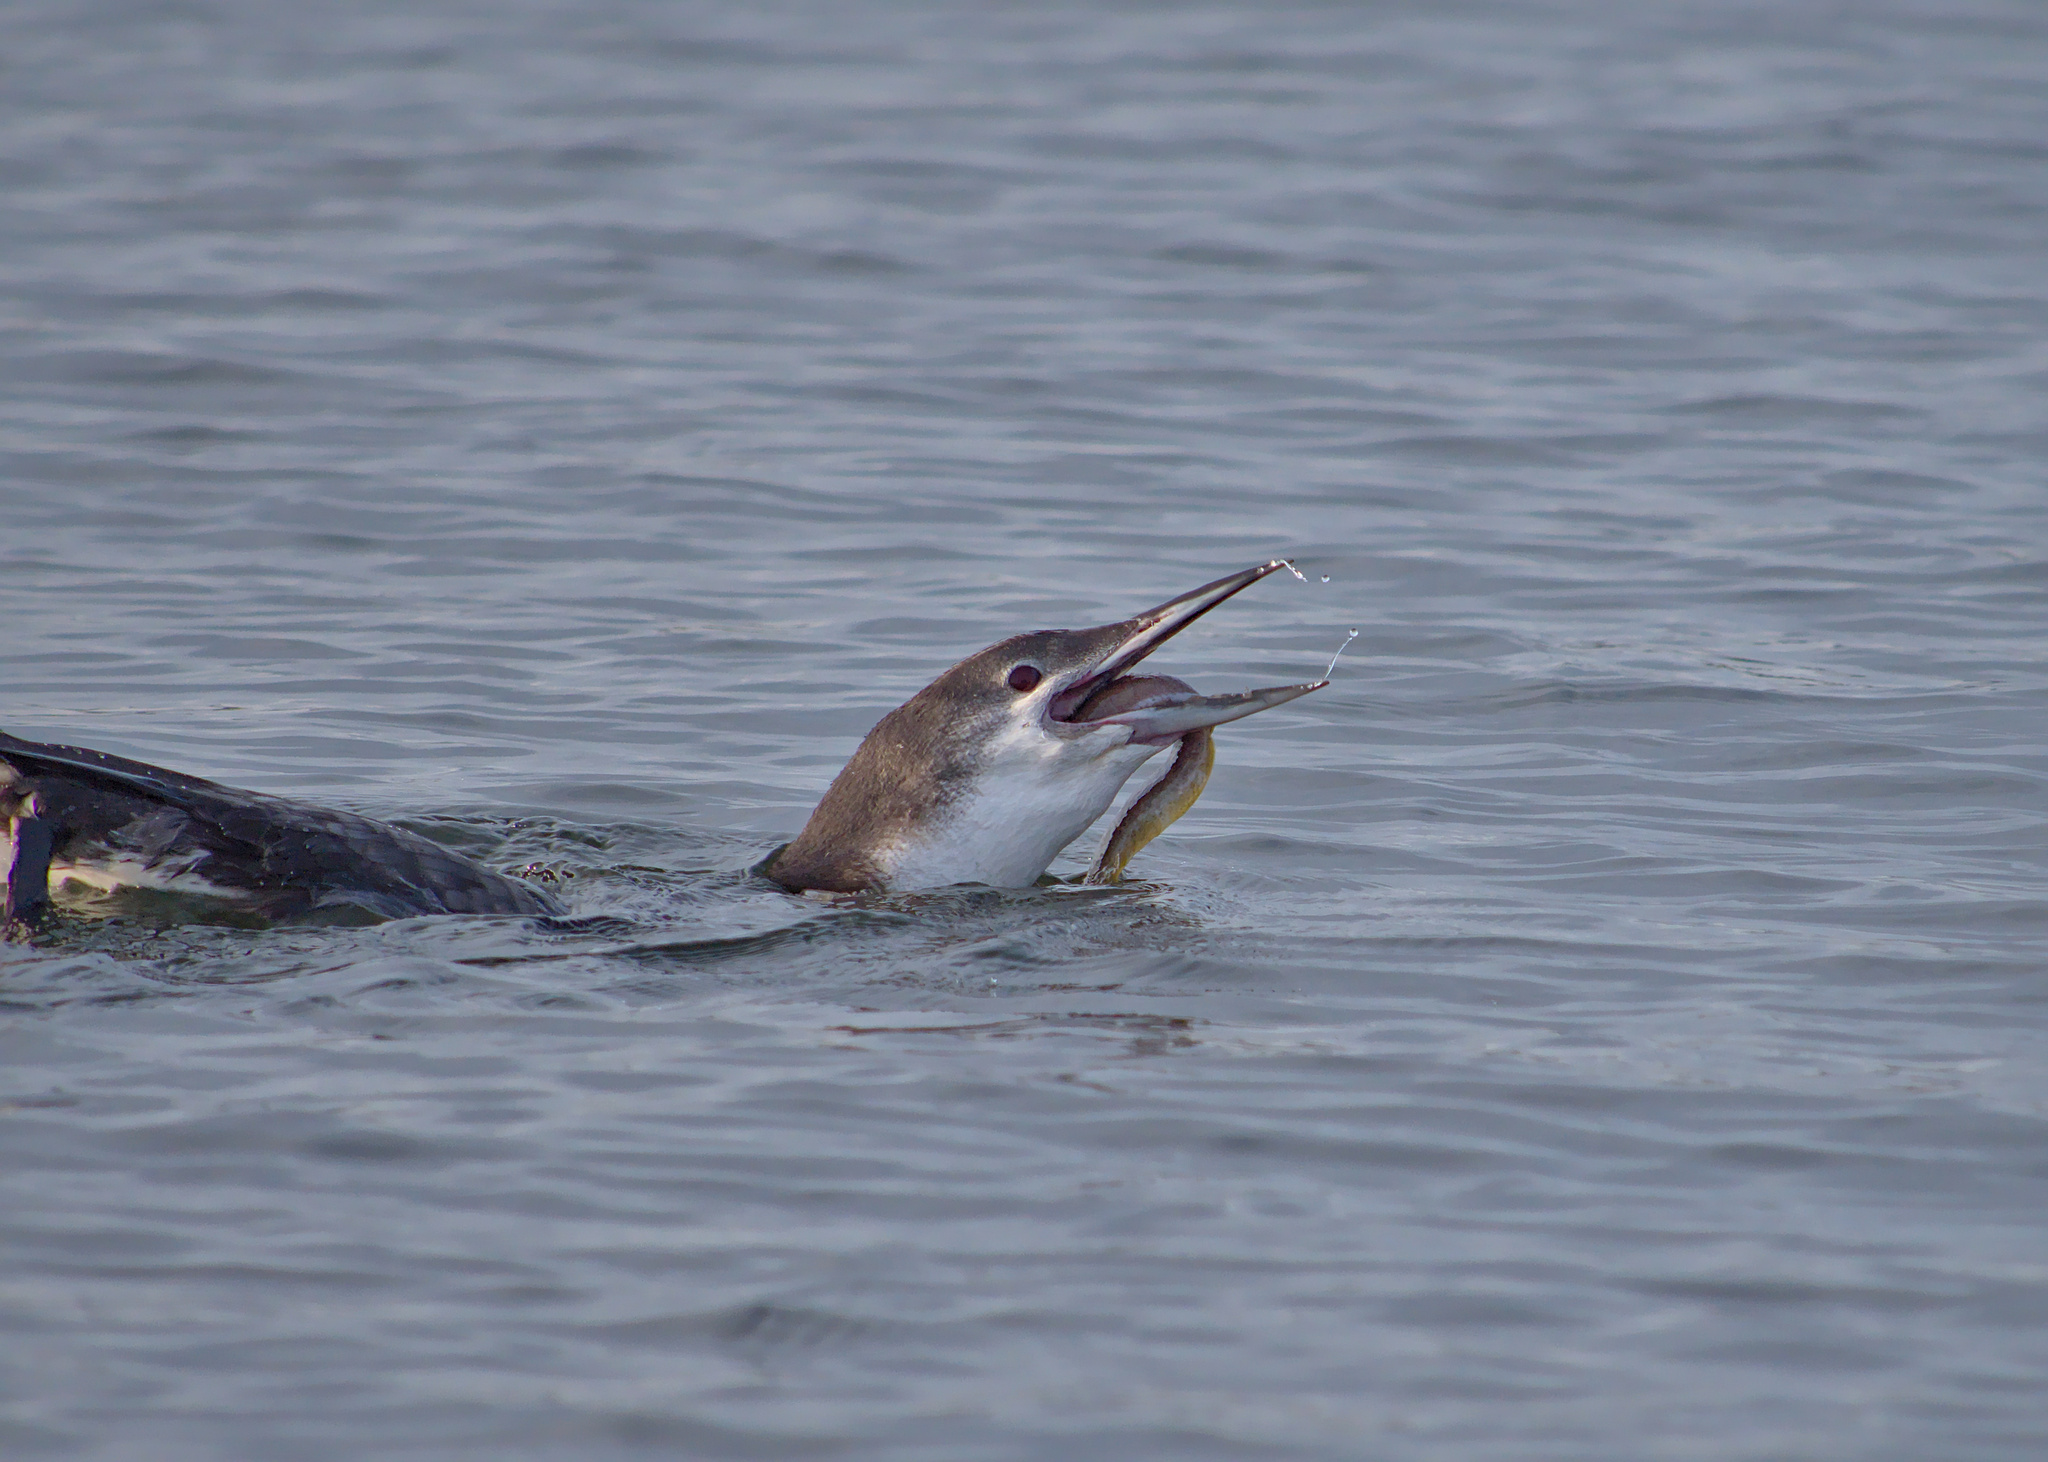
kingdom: Animalia
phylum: Chordata
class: Aves
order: Gaviiformes
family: Gaviidae
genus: Gavia
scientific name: Gavia immer
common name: Common loon
